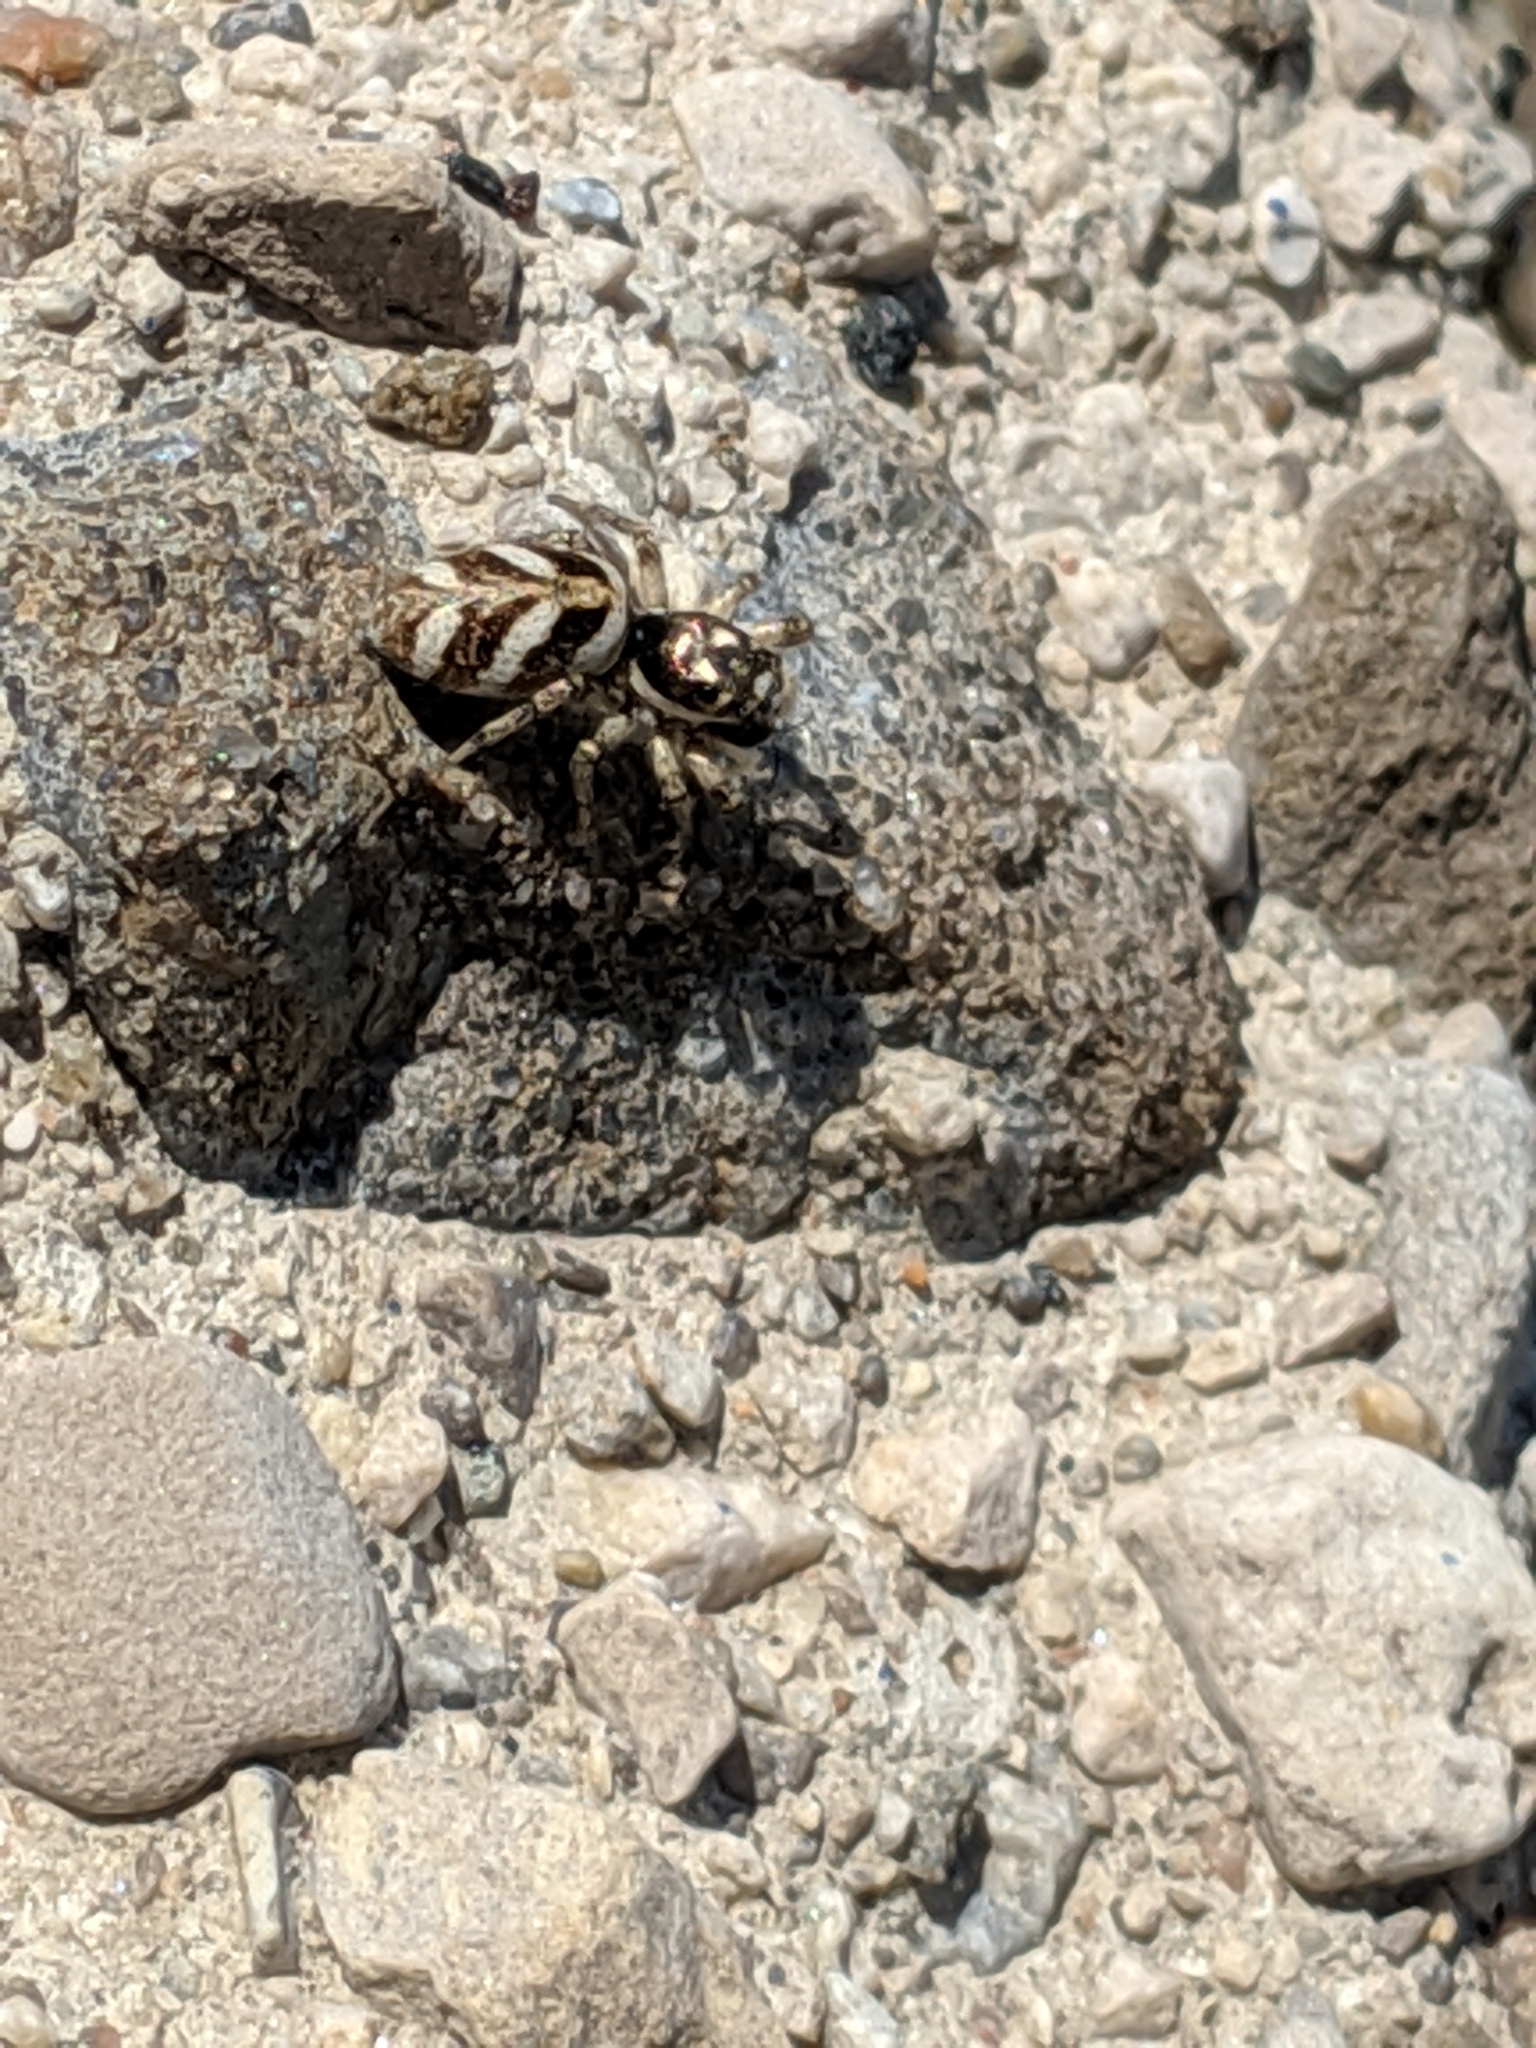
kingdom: Animalia
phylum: Arthropoda
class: Arachnida
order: Araneae
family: Salticidae
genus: Salticus
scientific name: Salticus scenicus
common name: Zebra jumper
